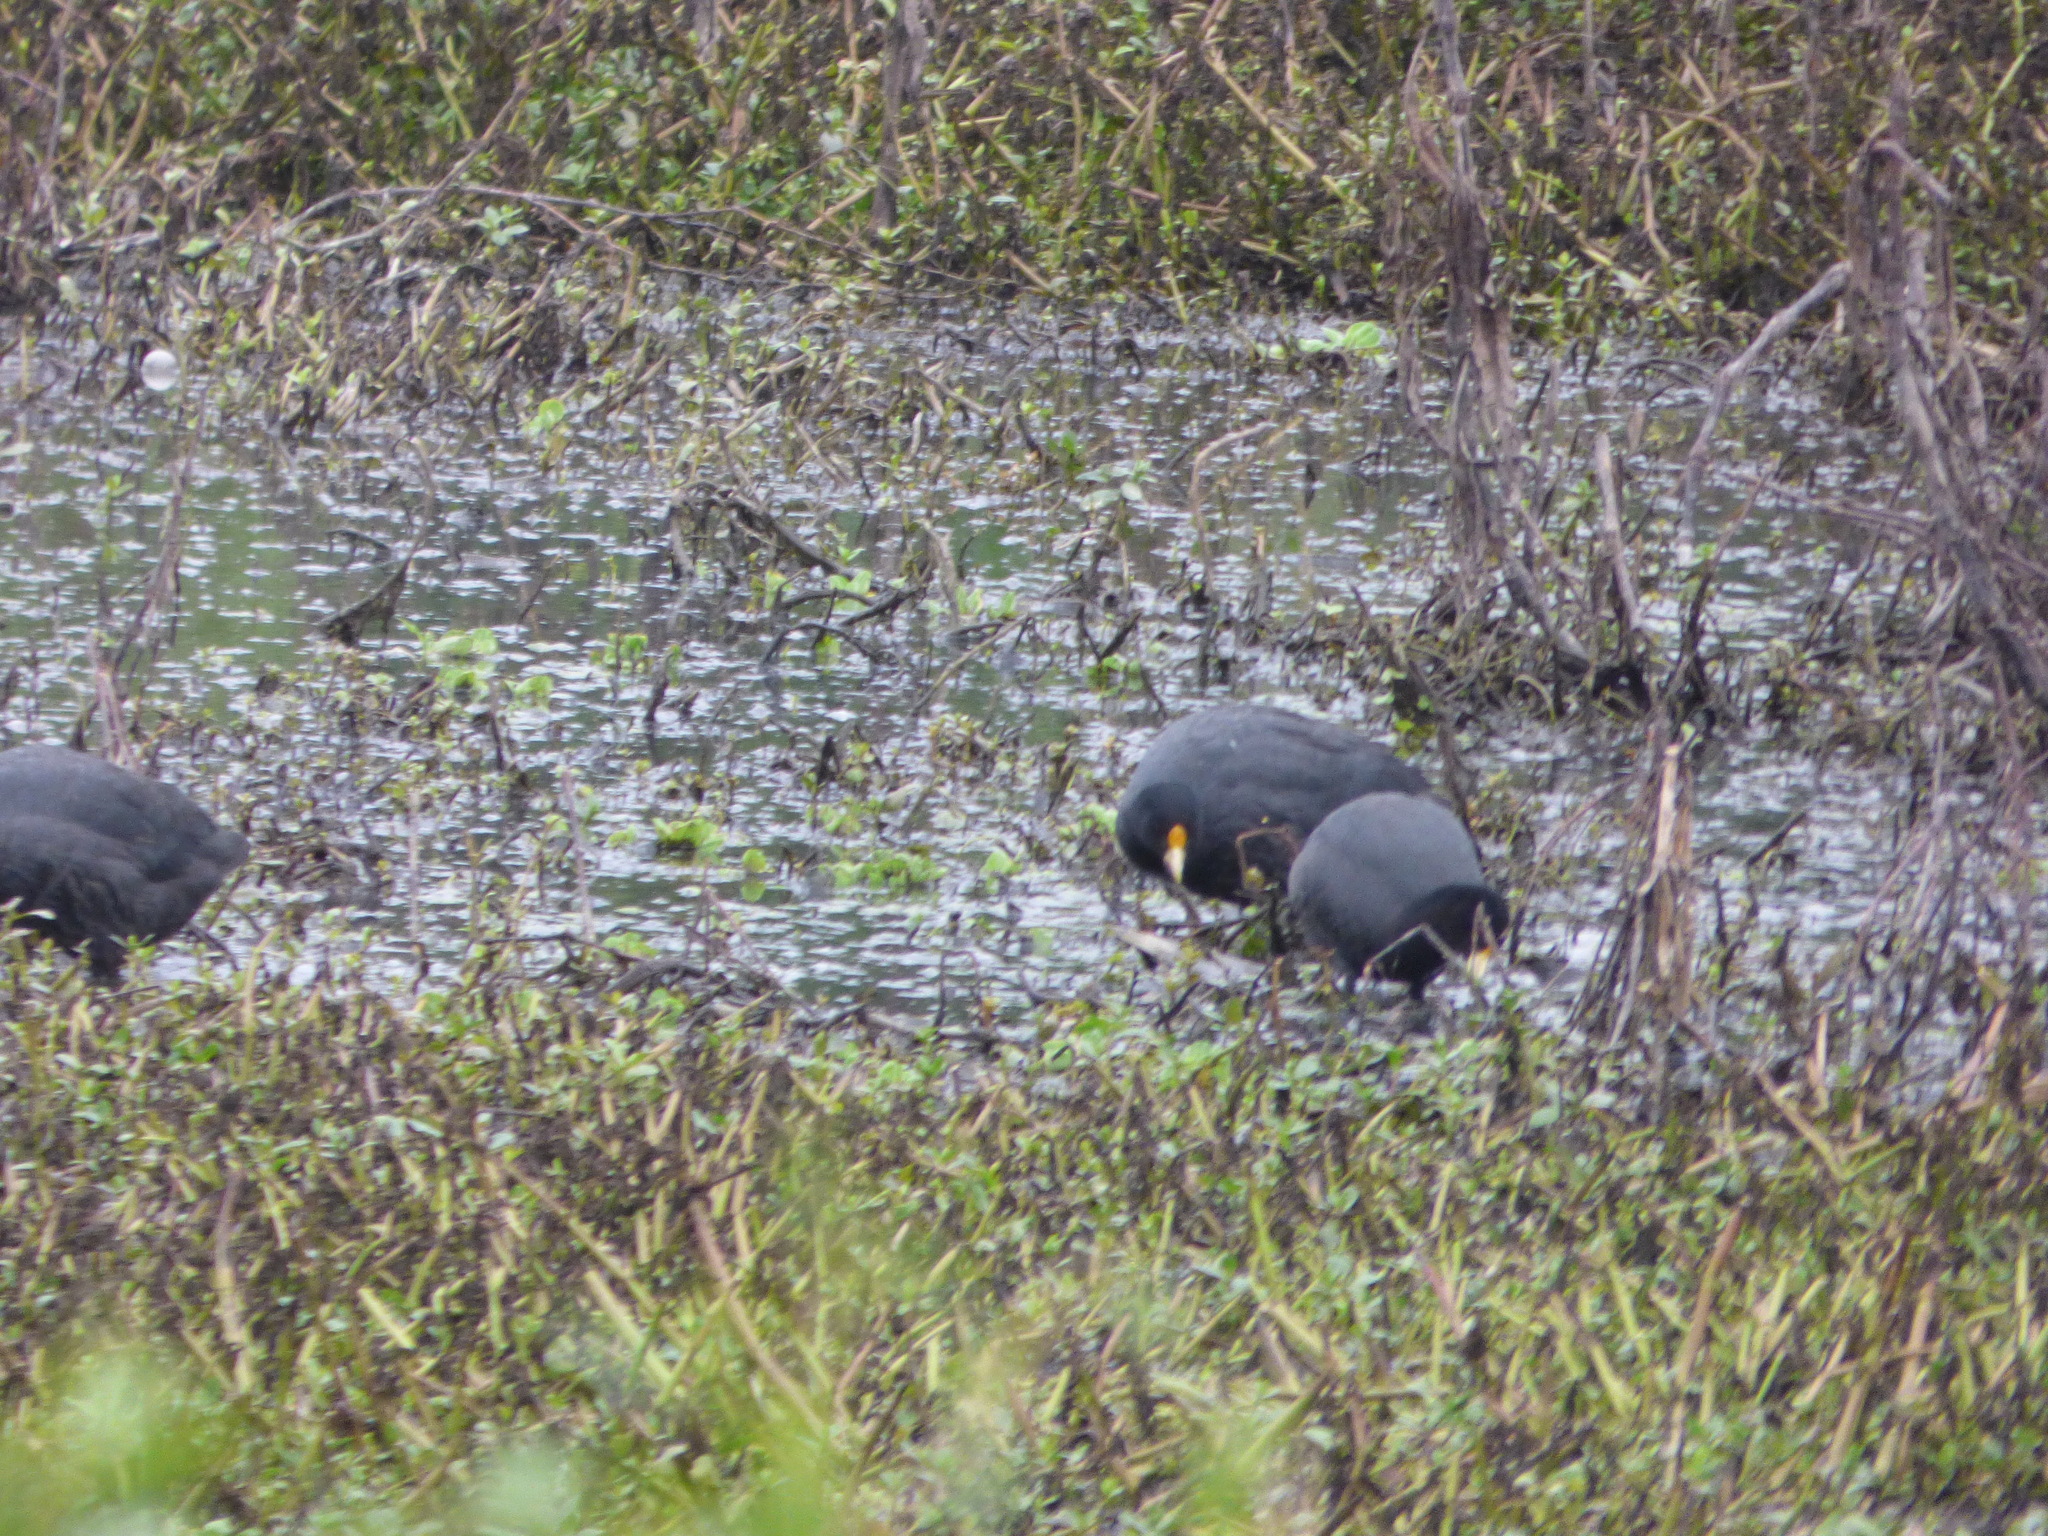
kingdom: Animalia
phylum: Chordata
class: Aves
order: Gruiformes
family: Rallidae
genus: Fulica
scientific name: Fulica leucoptera
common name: White-winged coot
